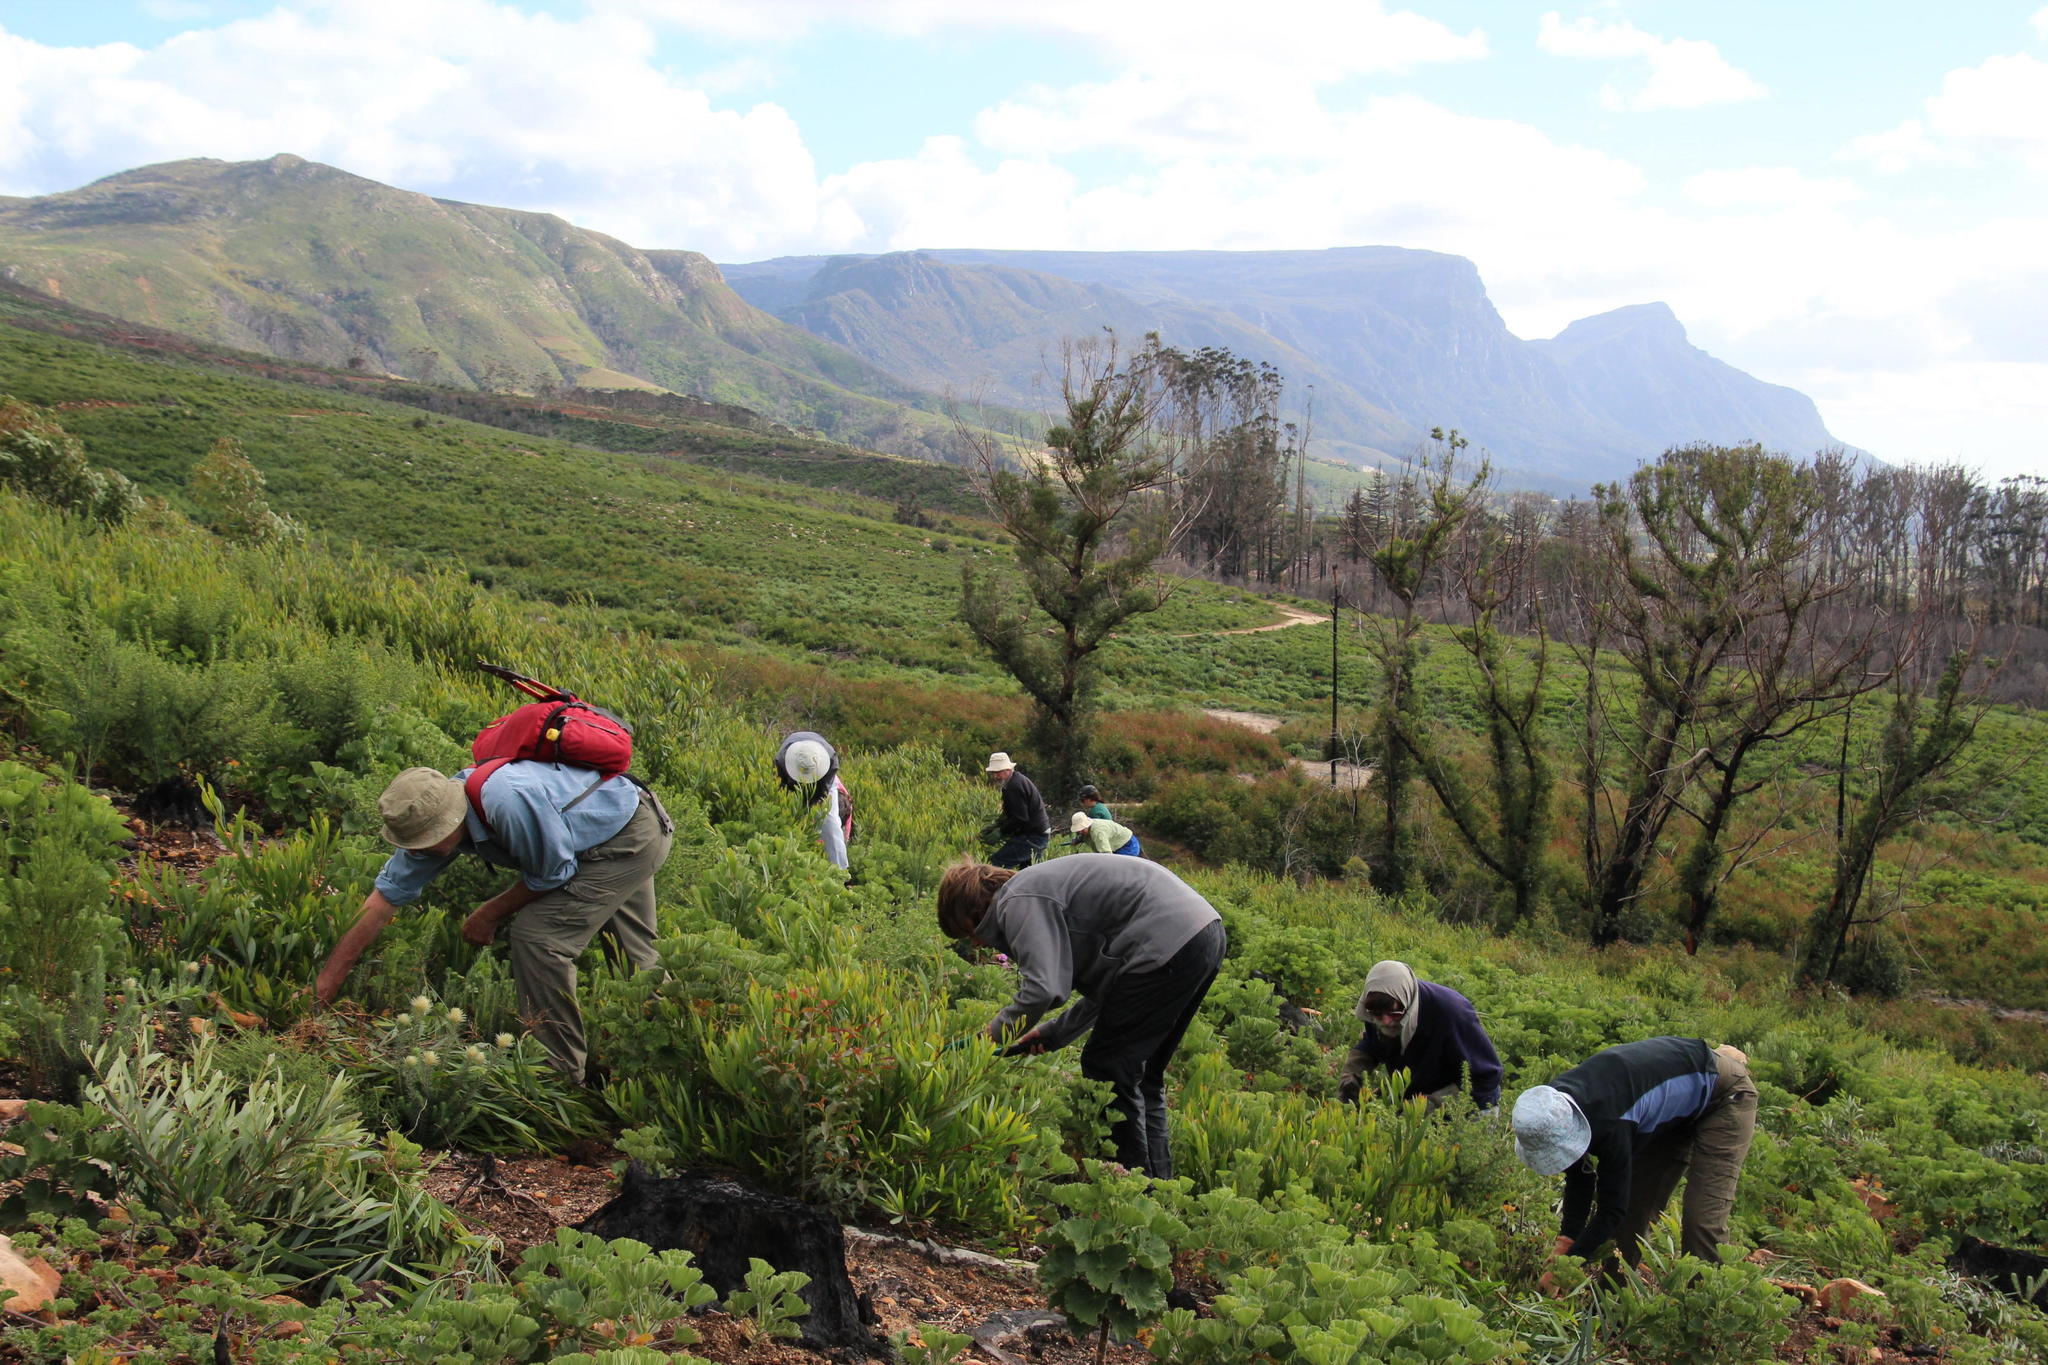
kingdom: Plantae
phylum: Tracheophyta
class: Magnoliopsida
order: Fabales
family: Fabaceae
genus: Acacia
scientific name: Acacia longifolia
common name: Sydney golden wattle
